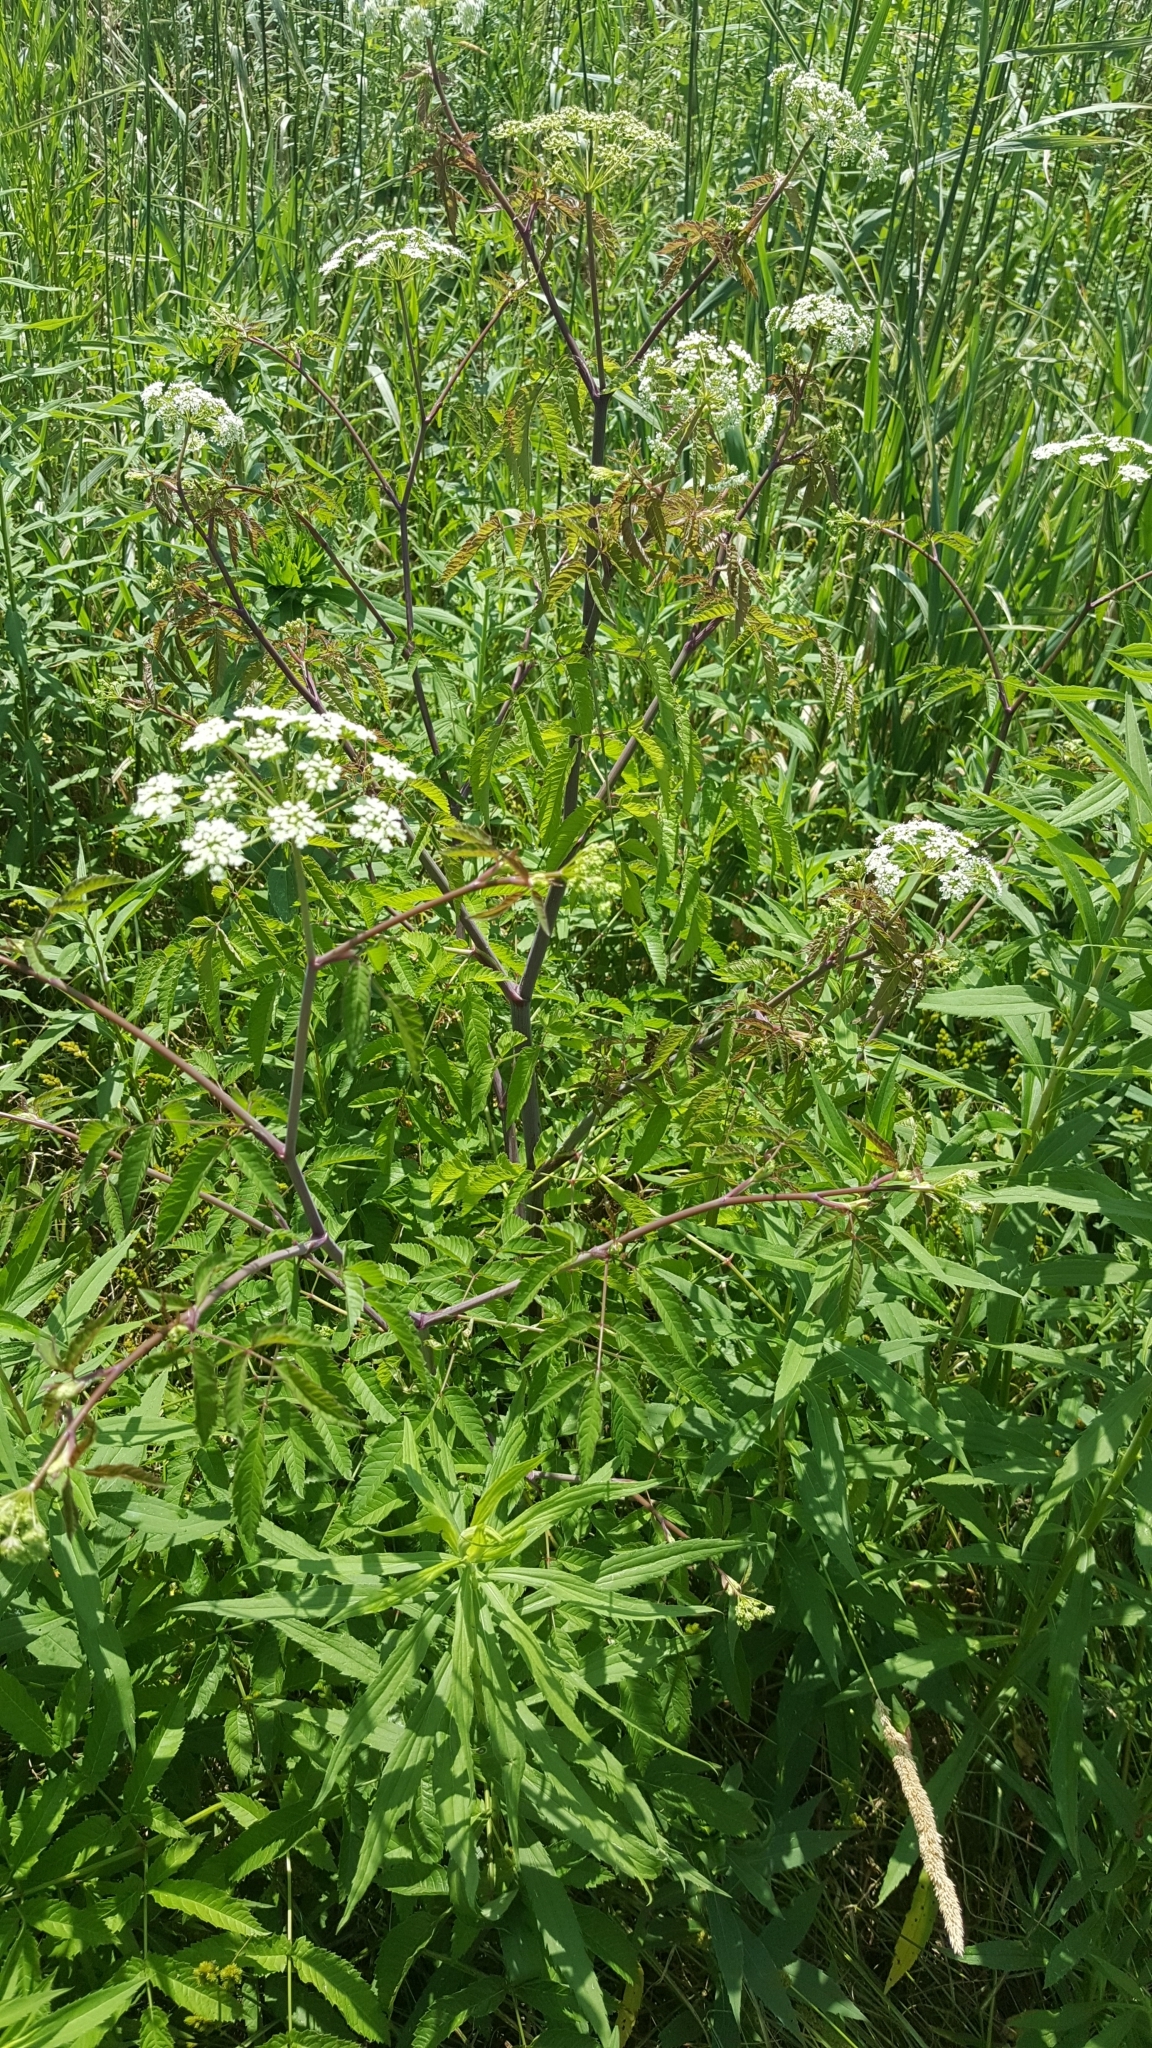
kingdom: Plantae
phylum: Tracheophyta
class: Magnoliopsida
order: Apiales
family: Apiaceae
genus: Cicuta
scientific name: Cicuta maculata
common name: Spotted cowbane
